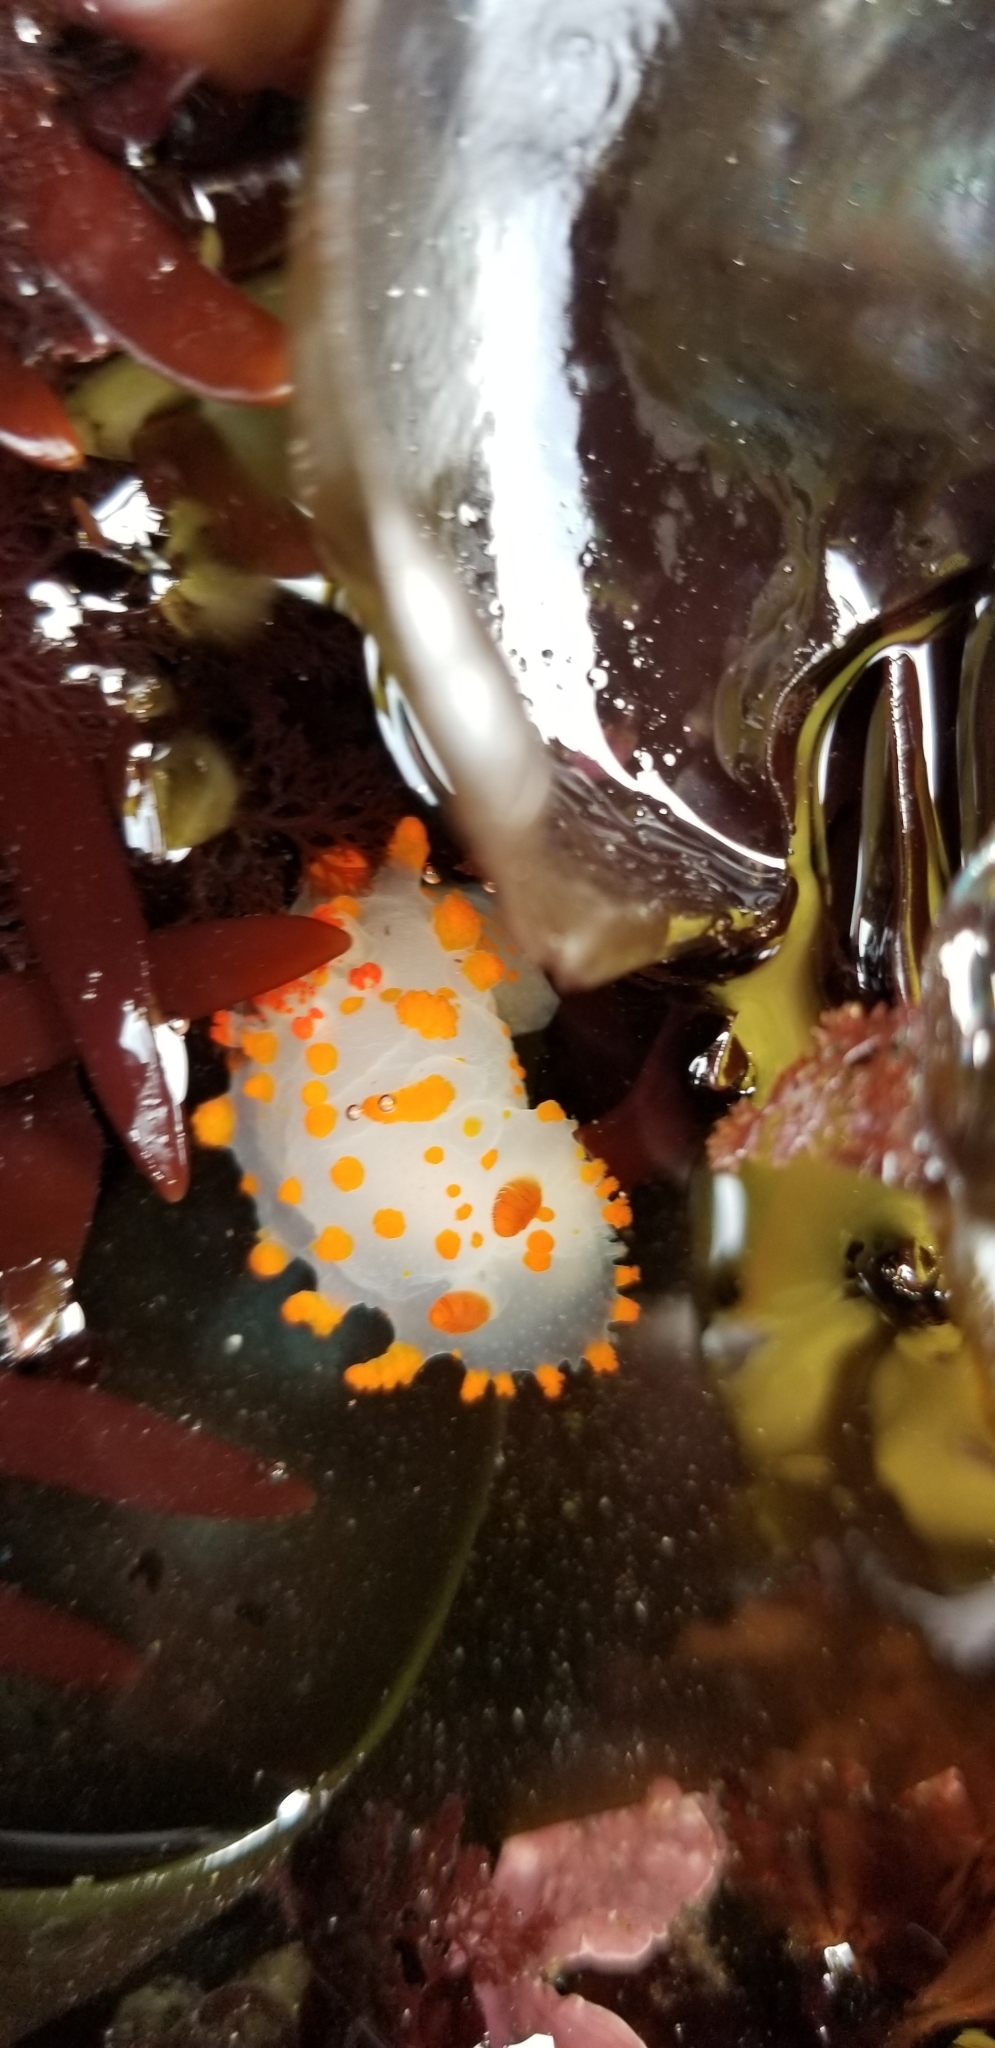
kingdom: Animalia
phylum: Mollusca
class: Gastropoda
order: Nudibranchia
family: Polyceridae
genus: Triopha
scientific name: Triopha catalinae
